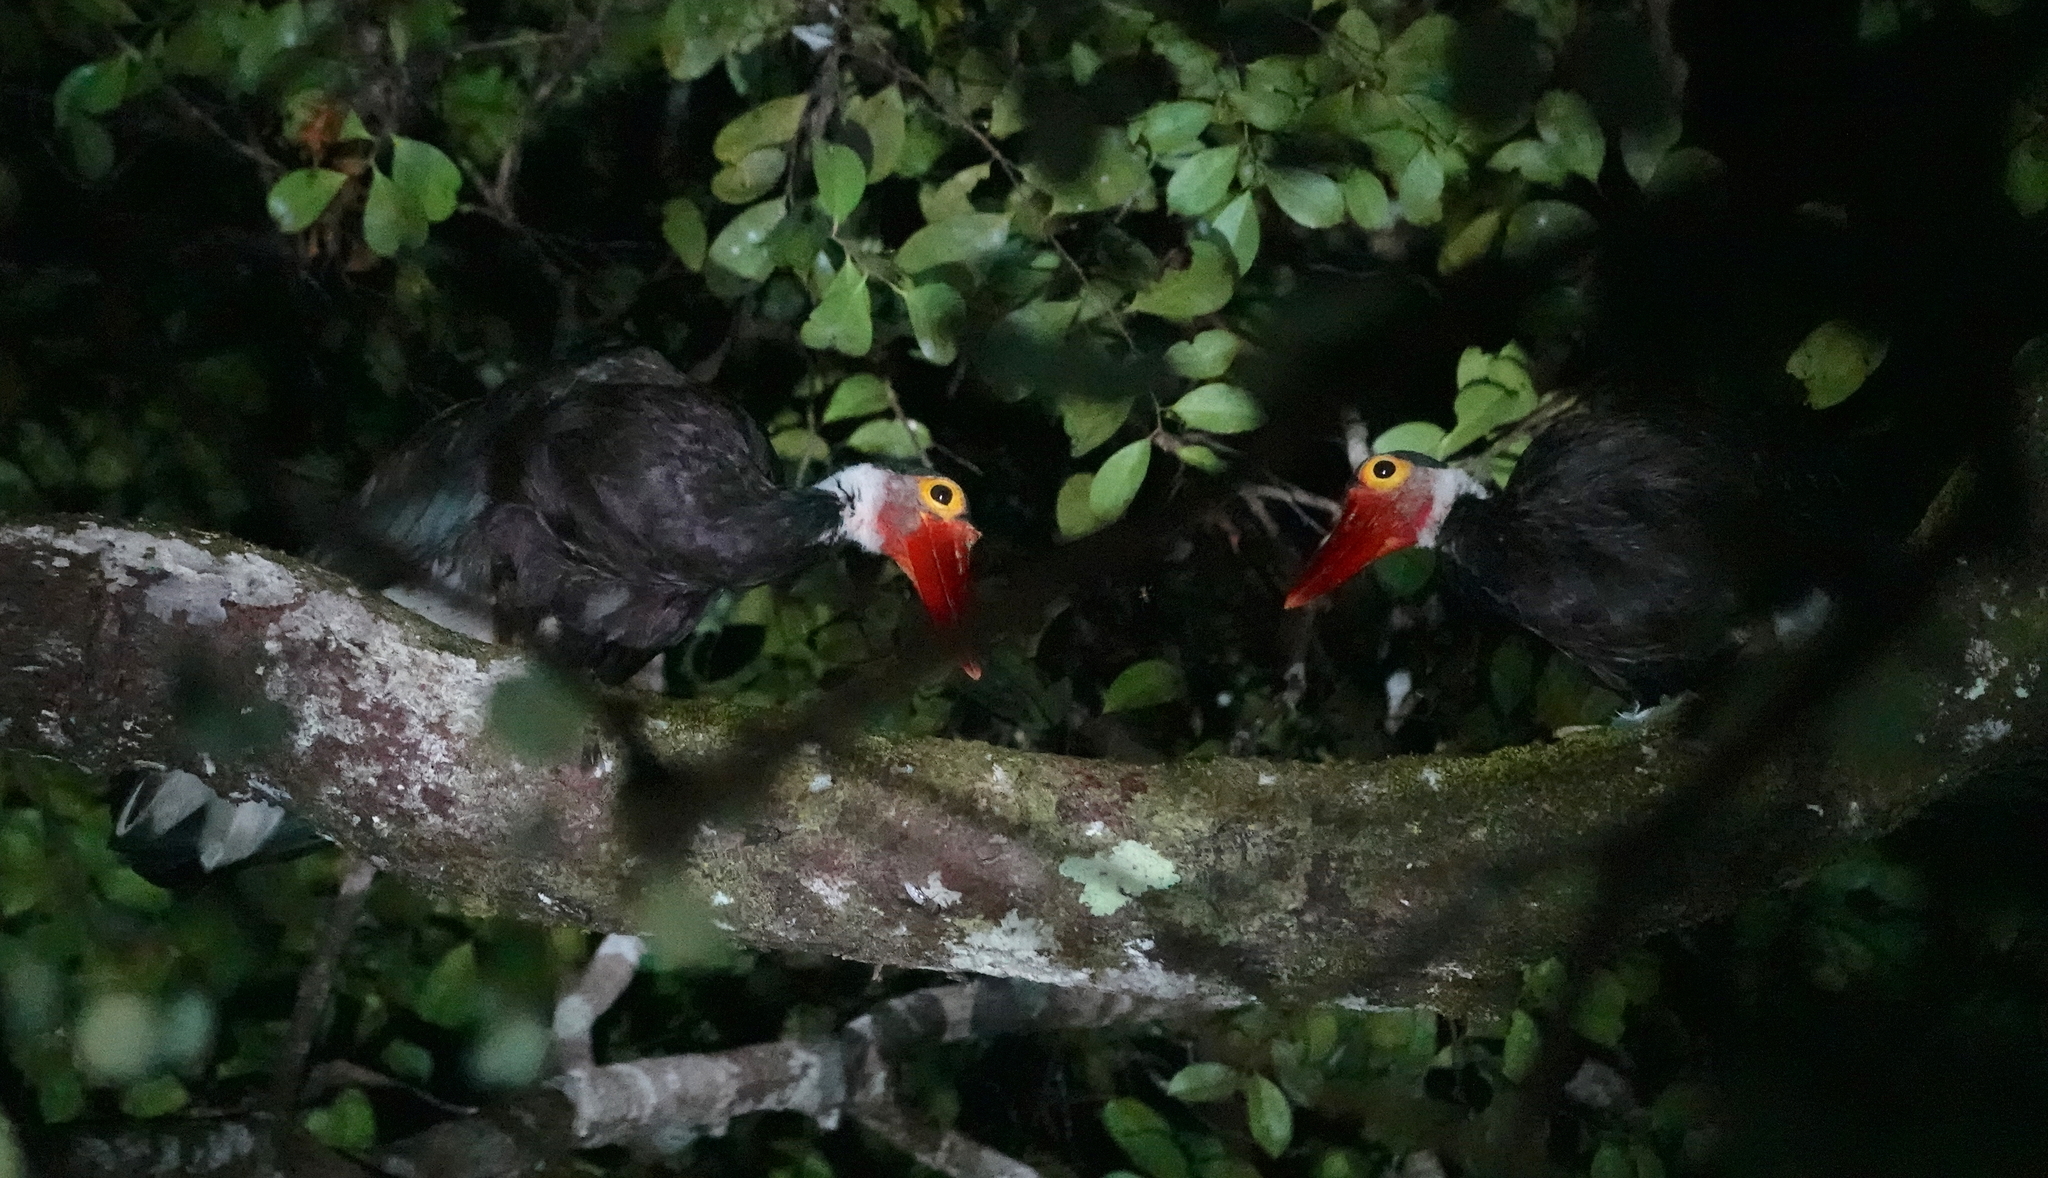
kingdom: Animalia
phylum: Chordata
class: Aves
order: Ciconiiformes
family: Ciconiidae
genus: Ciconia
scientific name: Ciconia stormi
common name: Storm's stork
